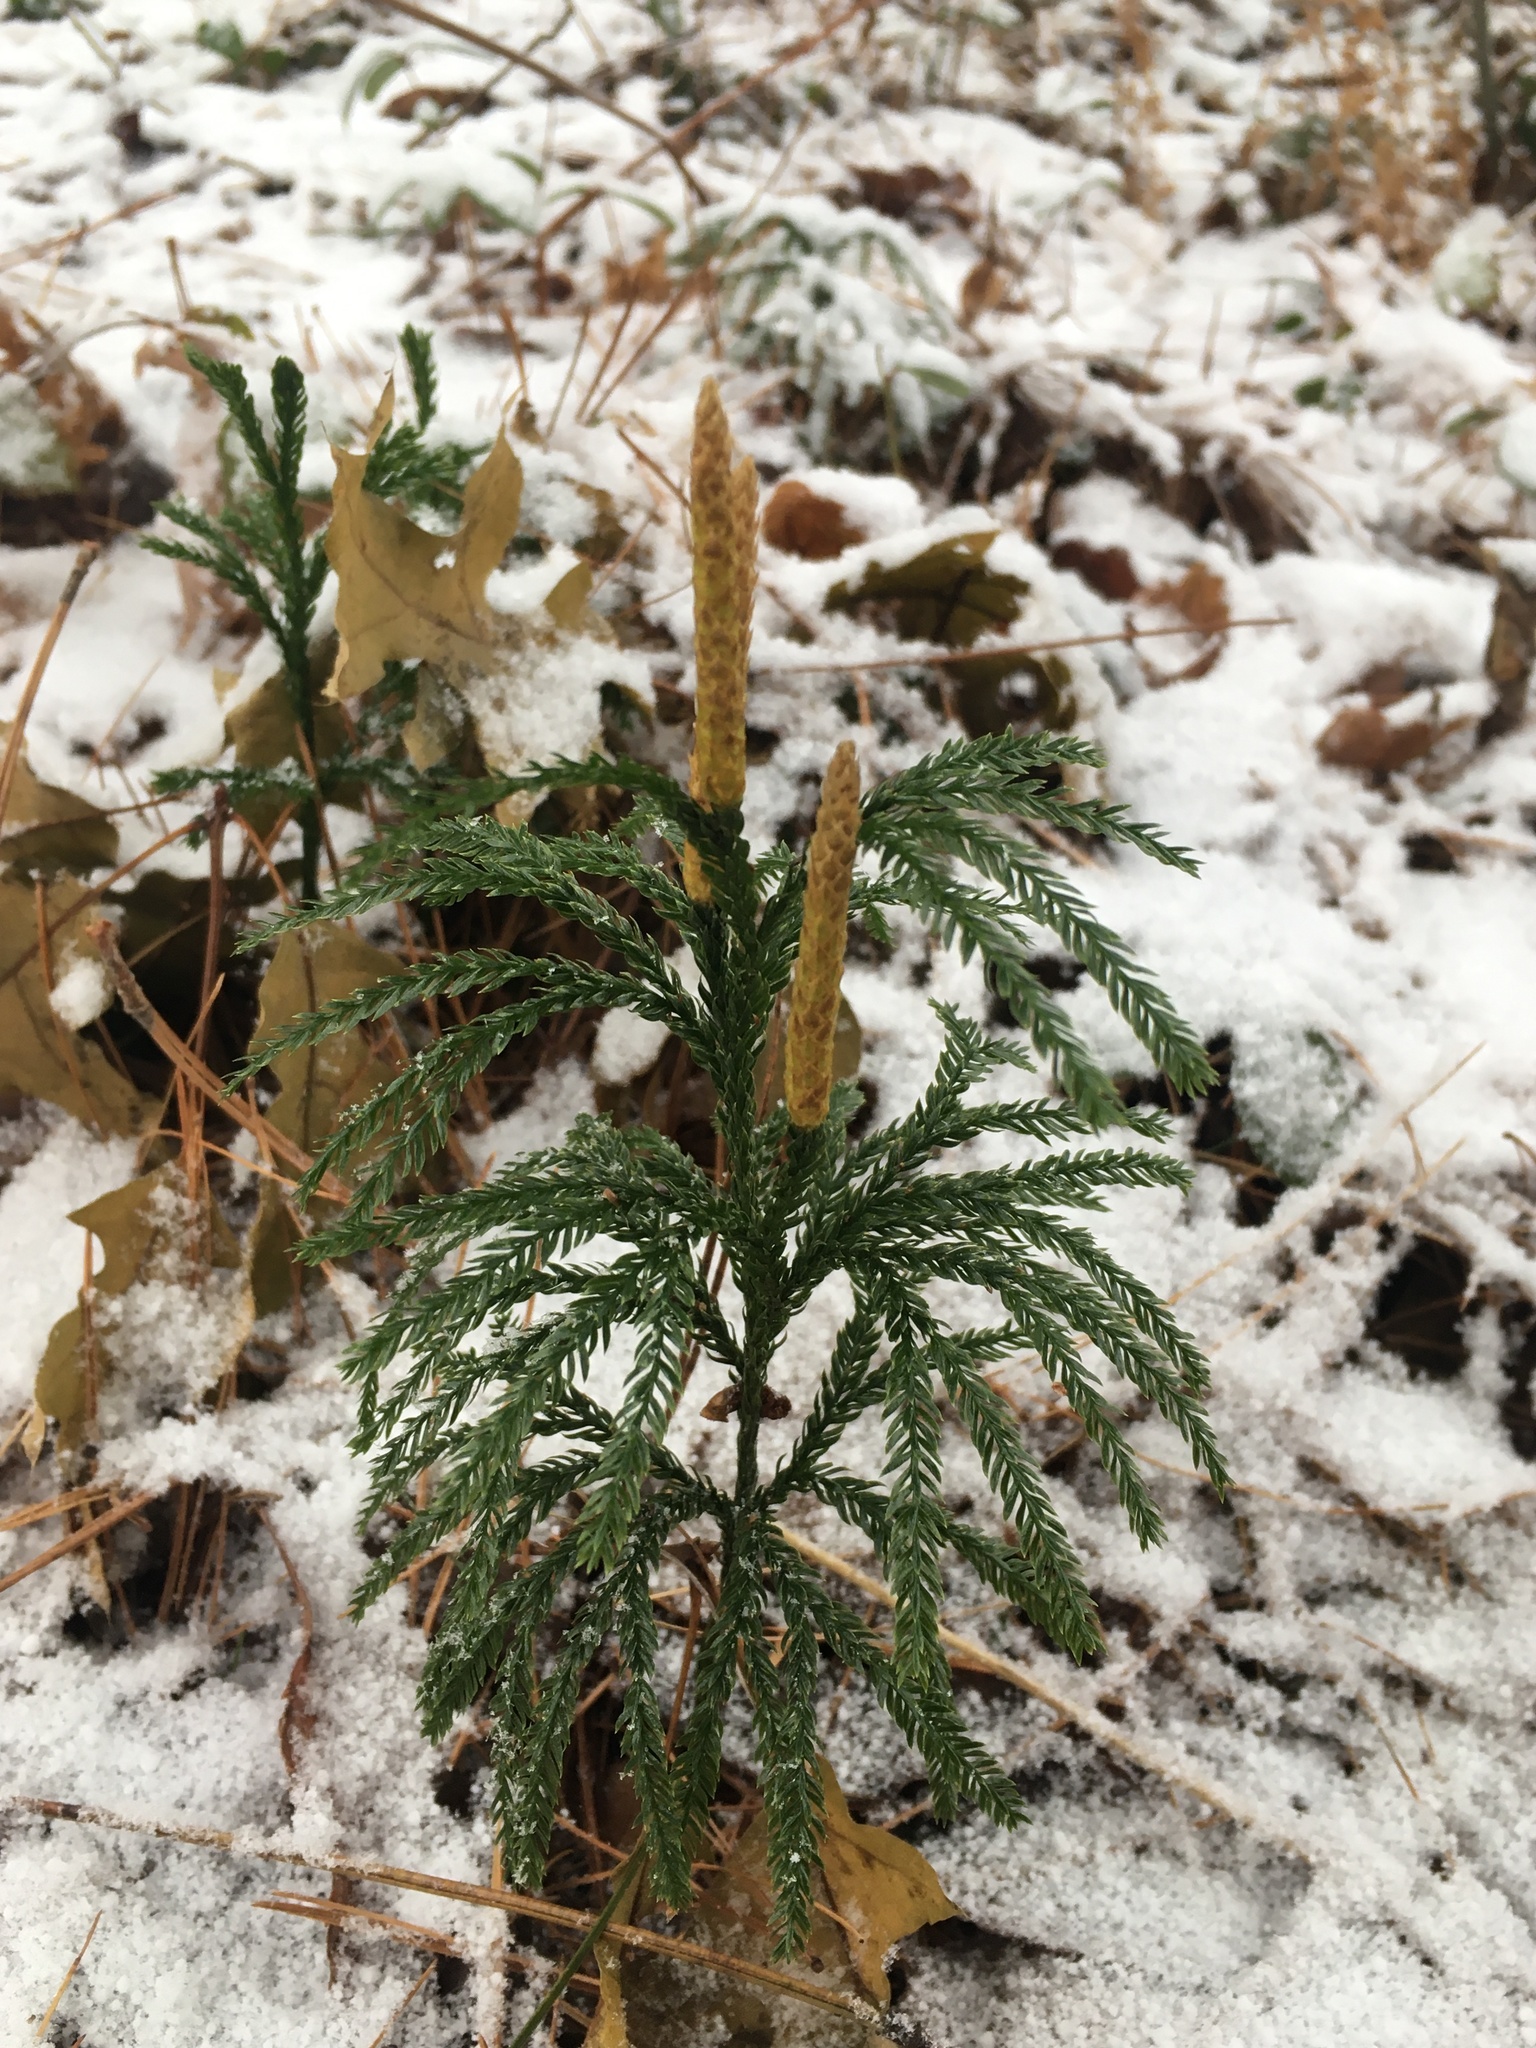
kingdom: Plantae
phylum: Tracheophyta
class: Lycopodiopsida
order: Lycopodiales
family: Lycopodiaceae
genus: Dendrolycopodium
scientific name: Dendrolycopodium obscurum
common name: Common ground-pine
